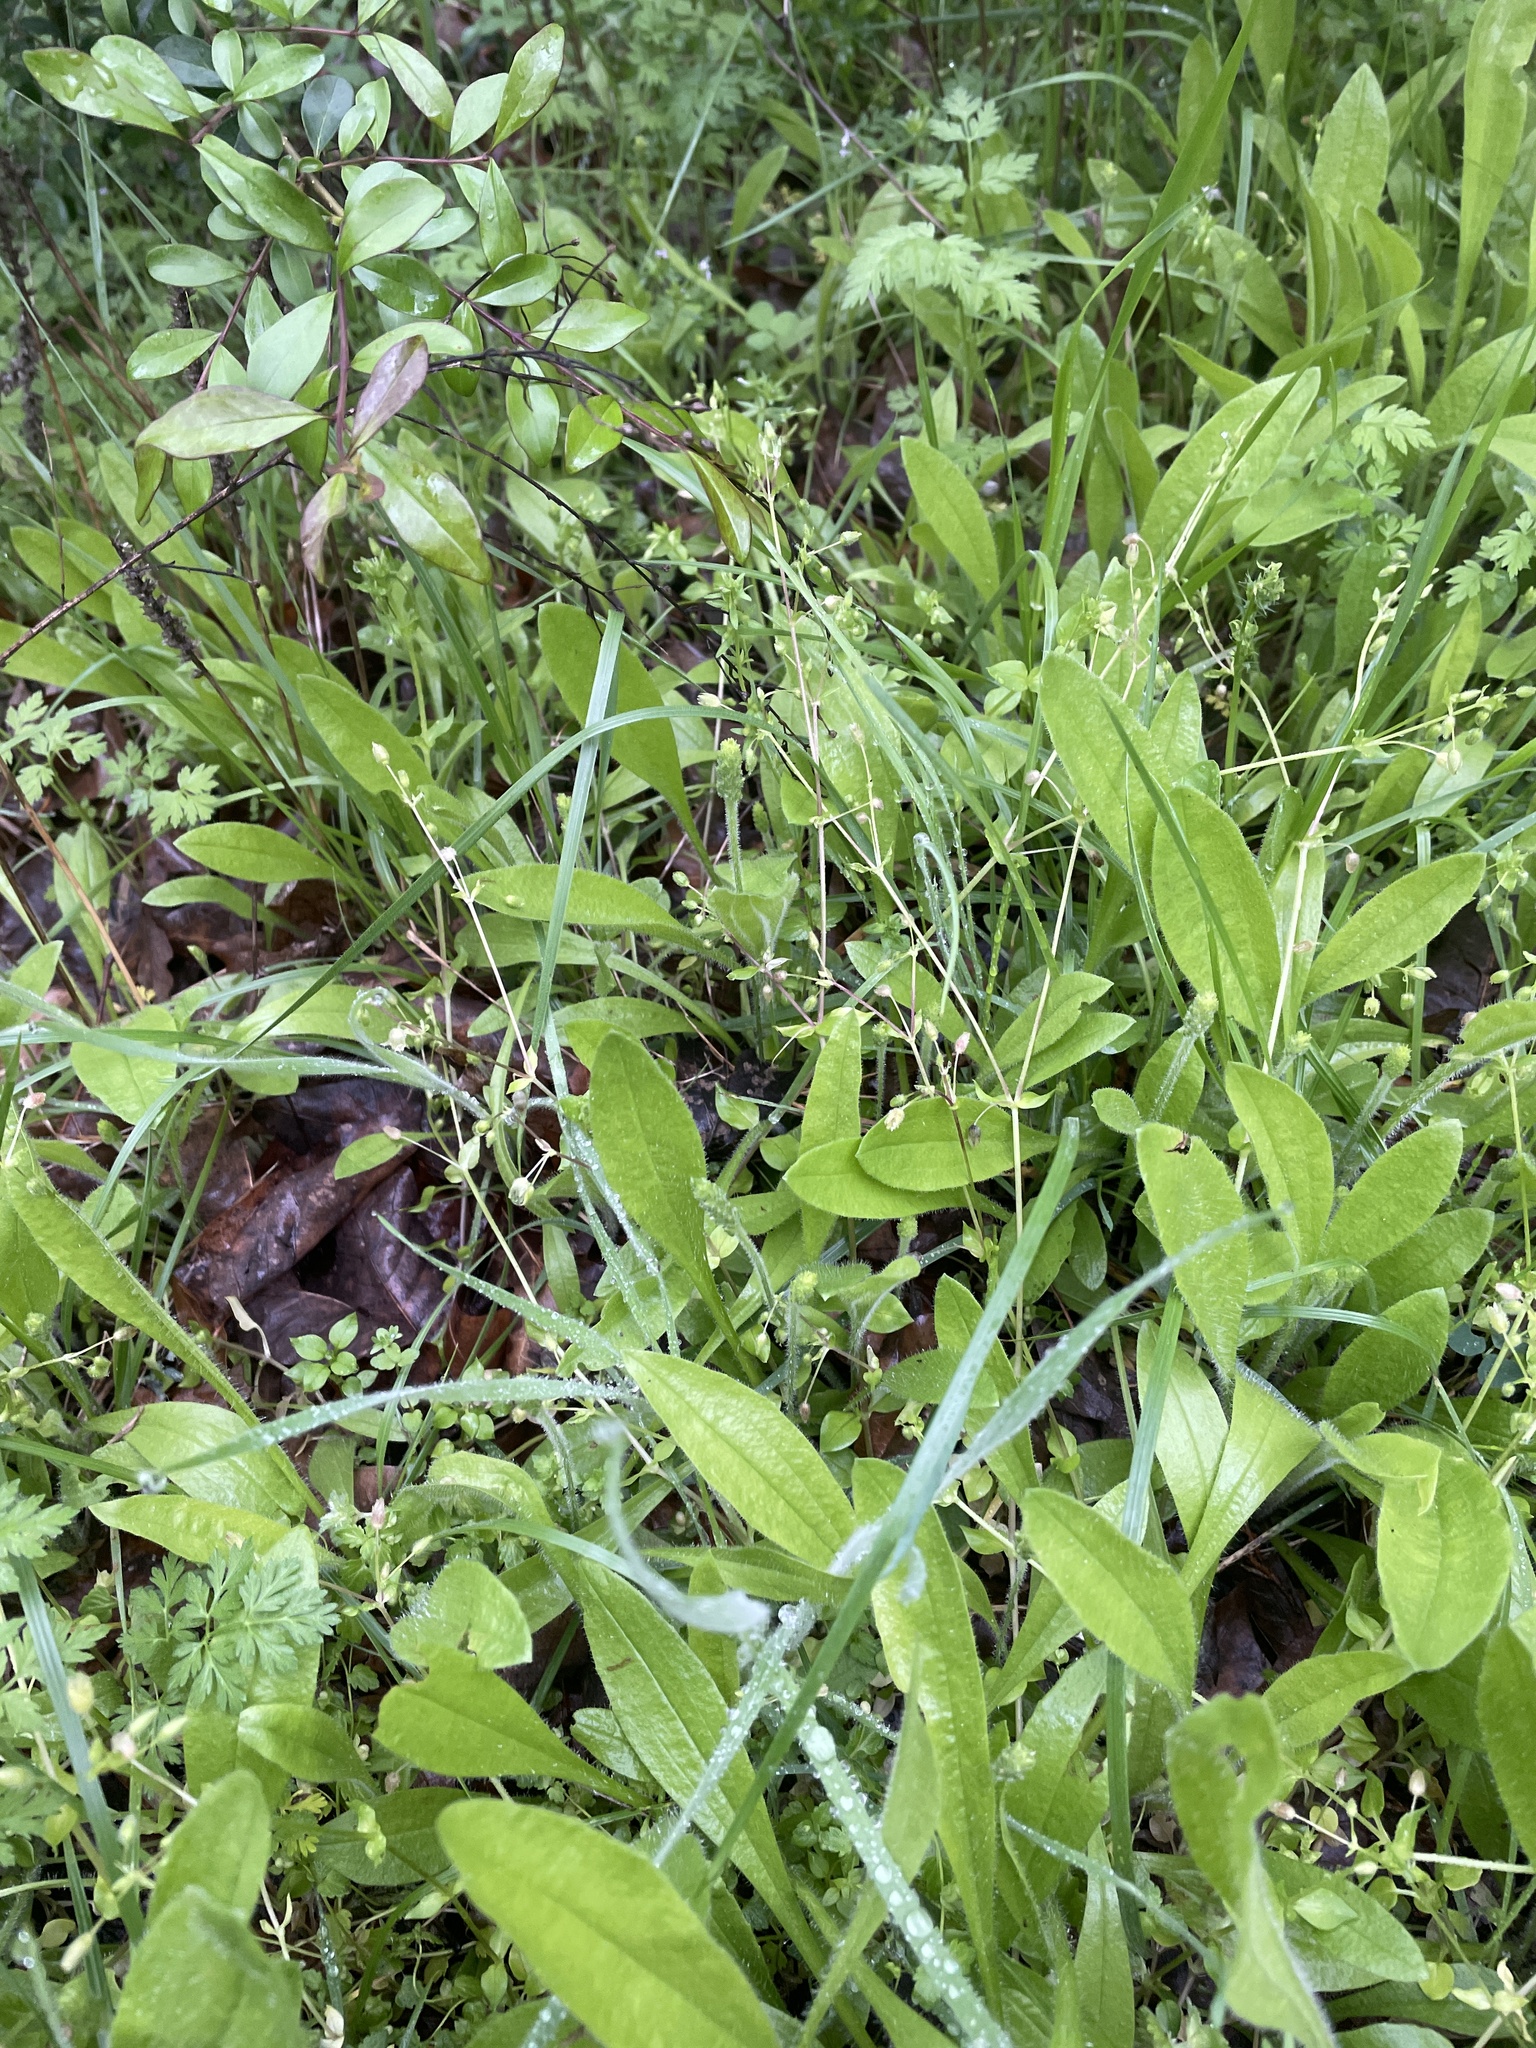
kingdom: Plantae
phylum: Tracheophyta
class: Magnoliopsida
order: Caryophyllales
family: Caryophyllaceae
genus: Stellaria
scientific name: Stellaria media
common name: Common chickweed
